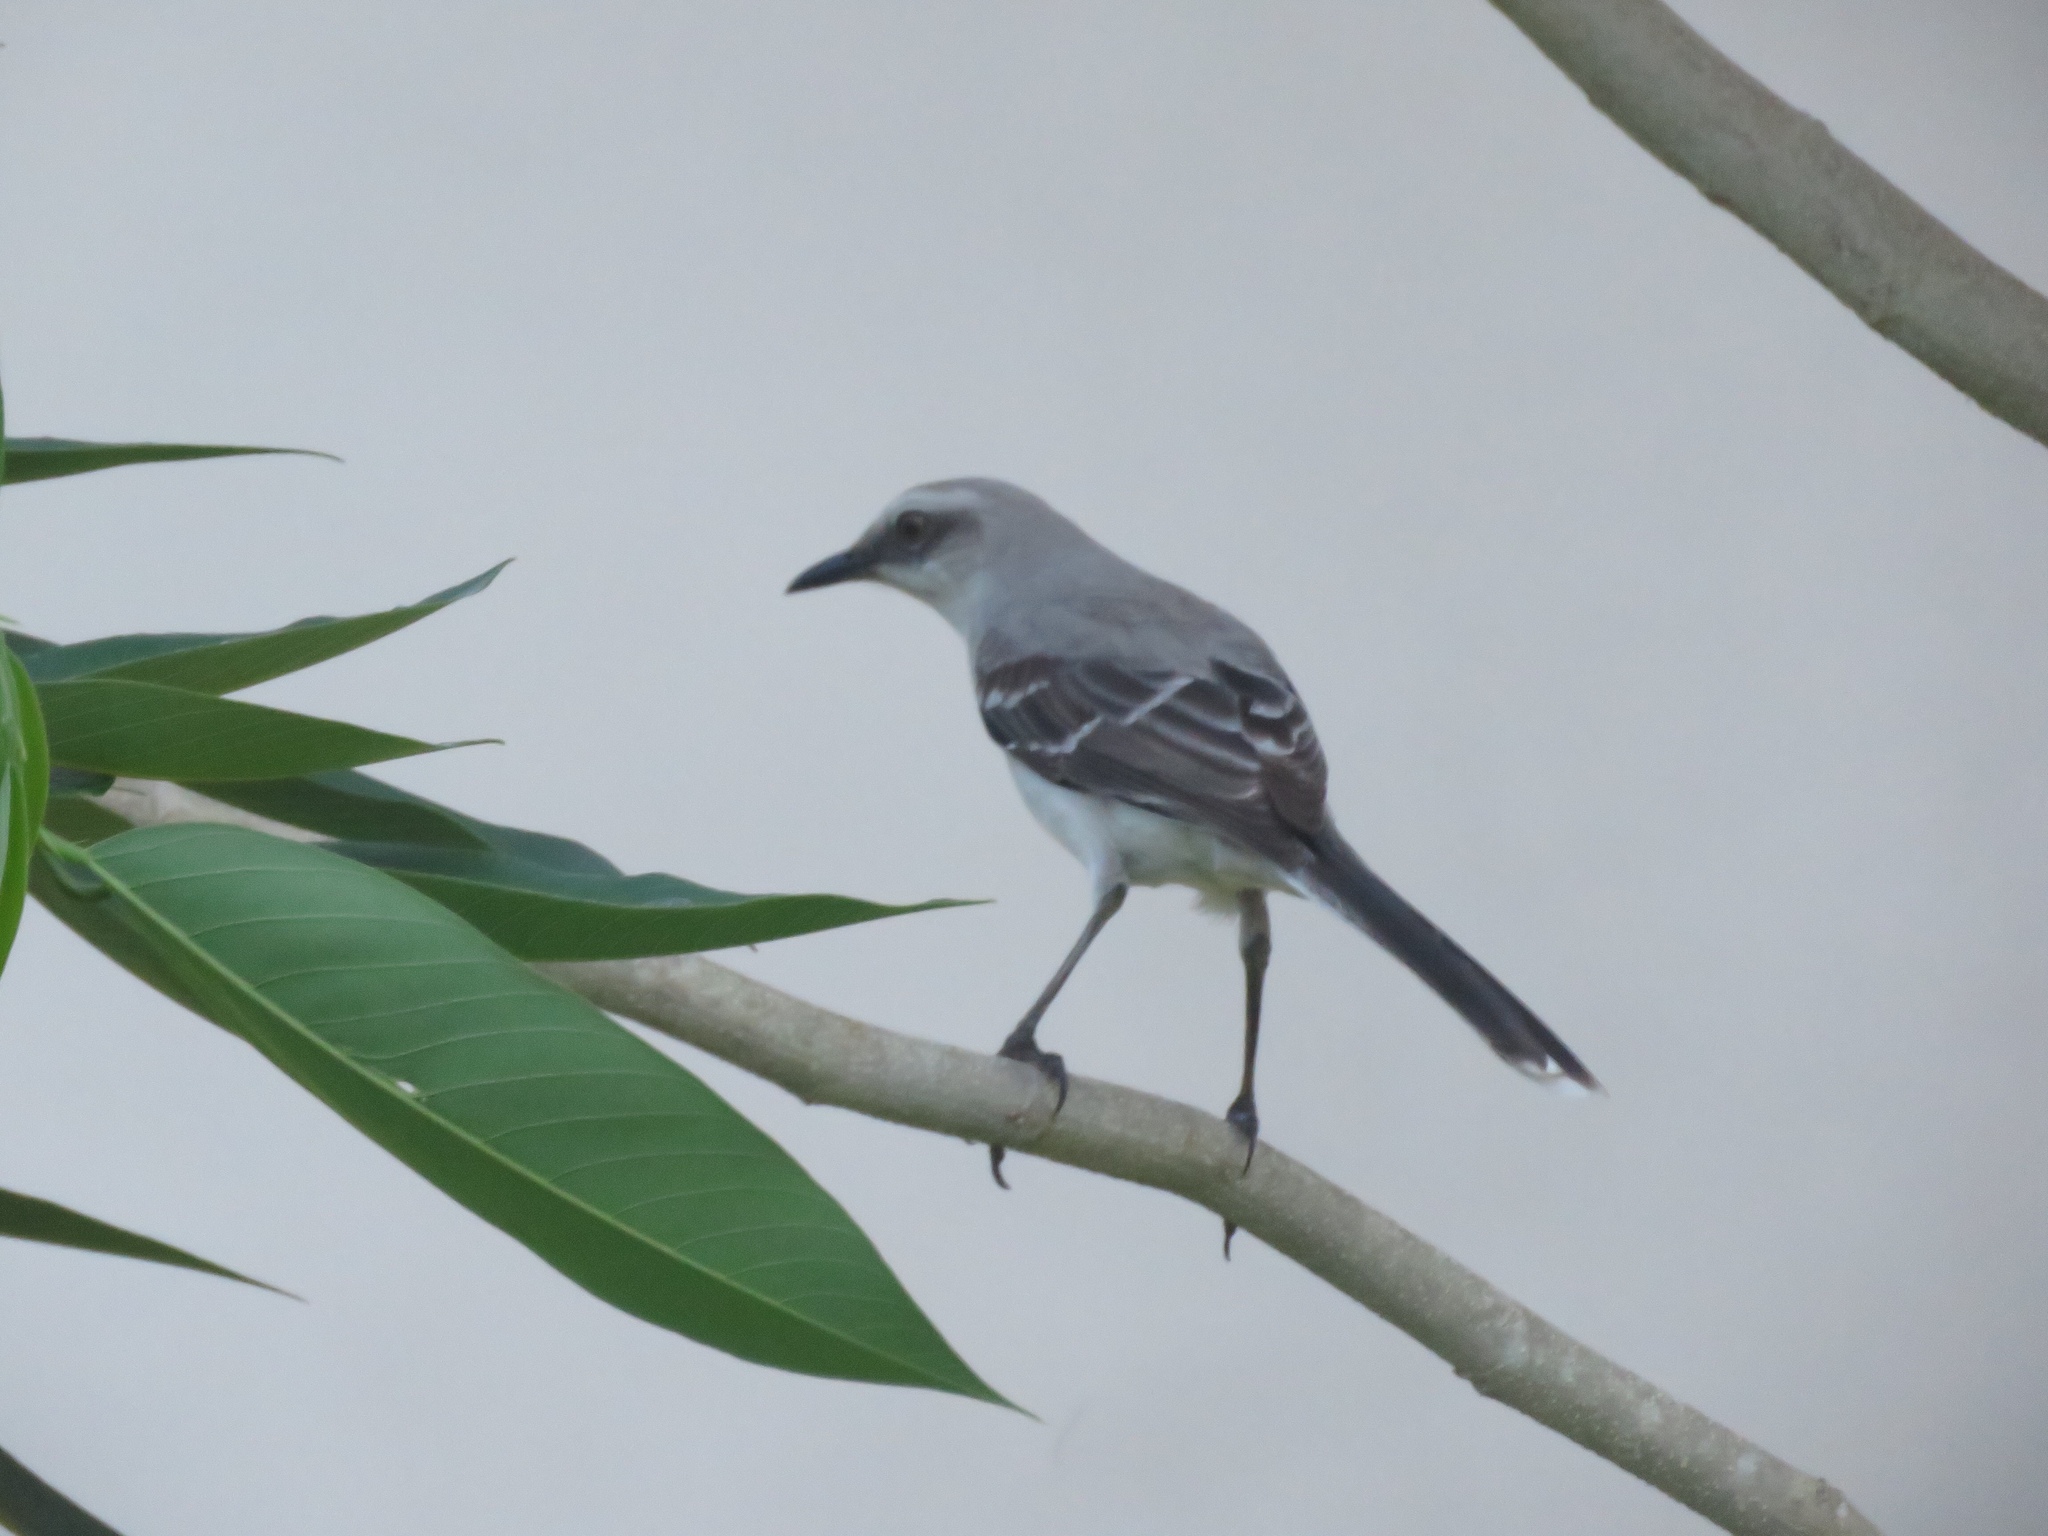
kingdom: Animalia
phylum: Chordata
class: Aves
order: Passeriformes
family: Mimidae
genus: Mimus
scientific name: Mimus gilvus
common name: Tropical mockingbird
